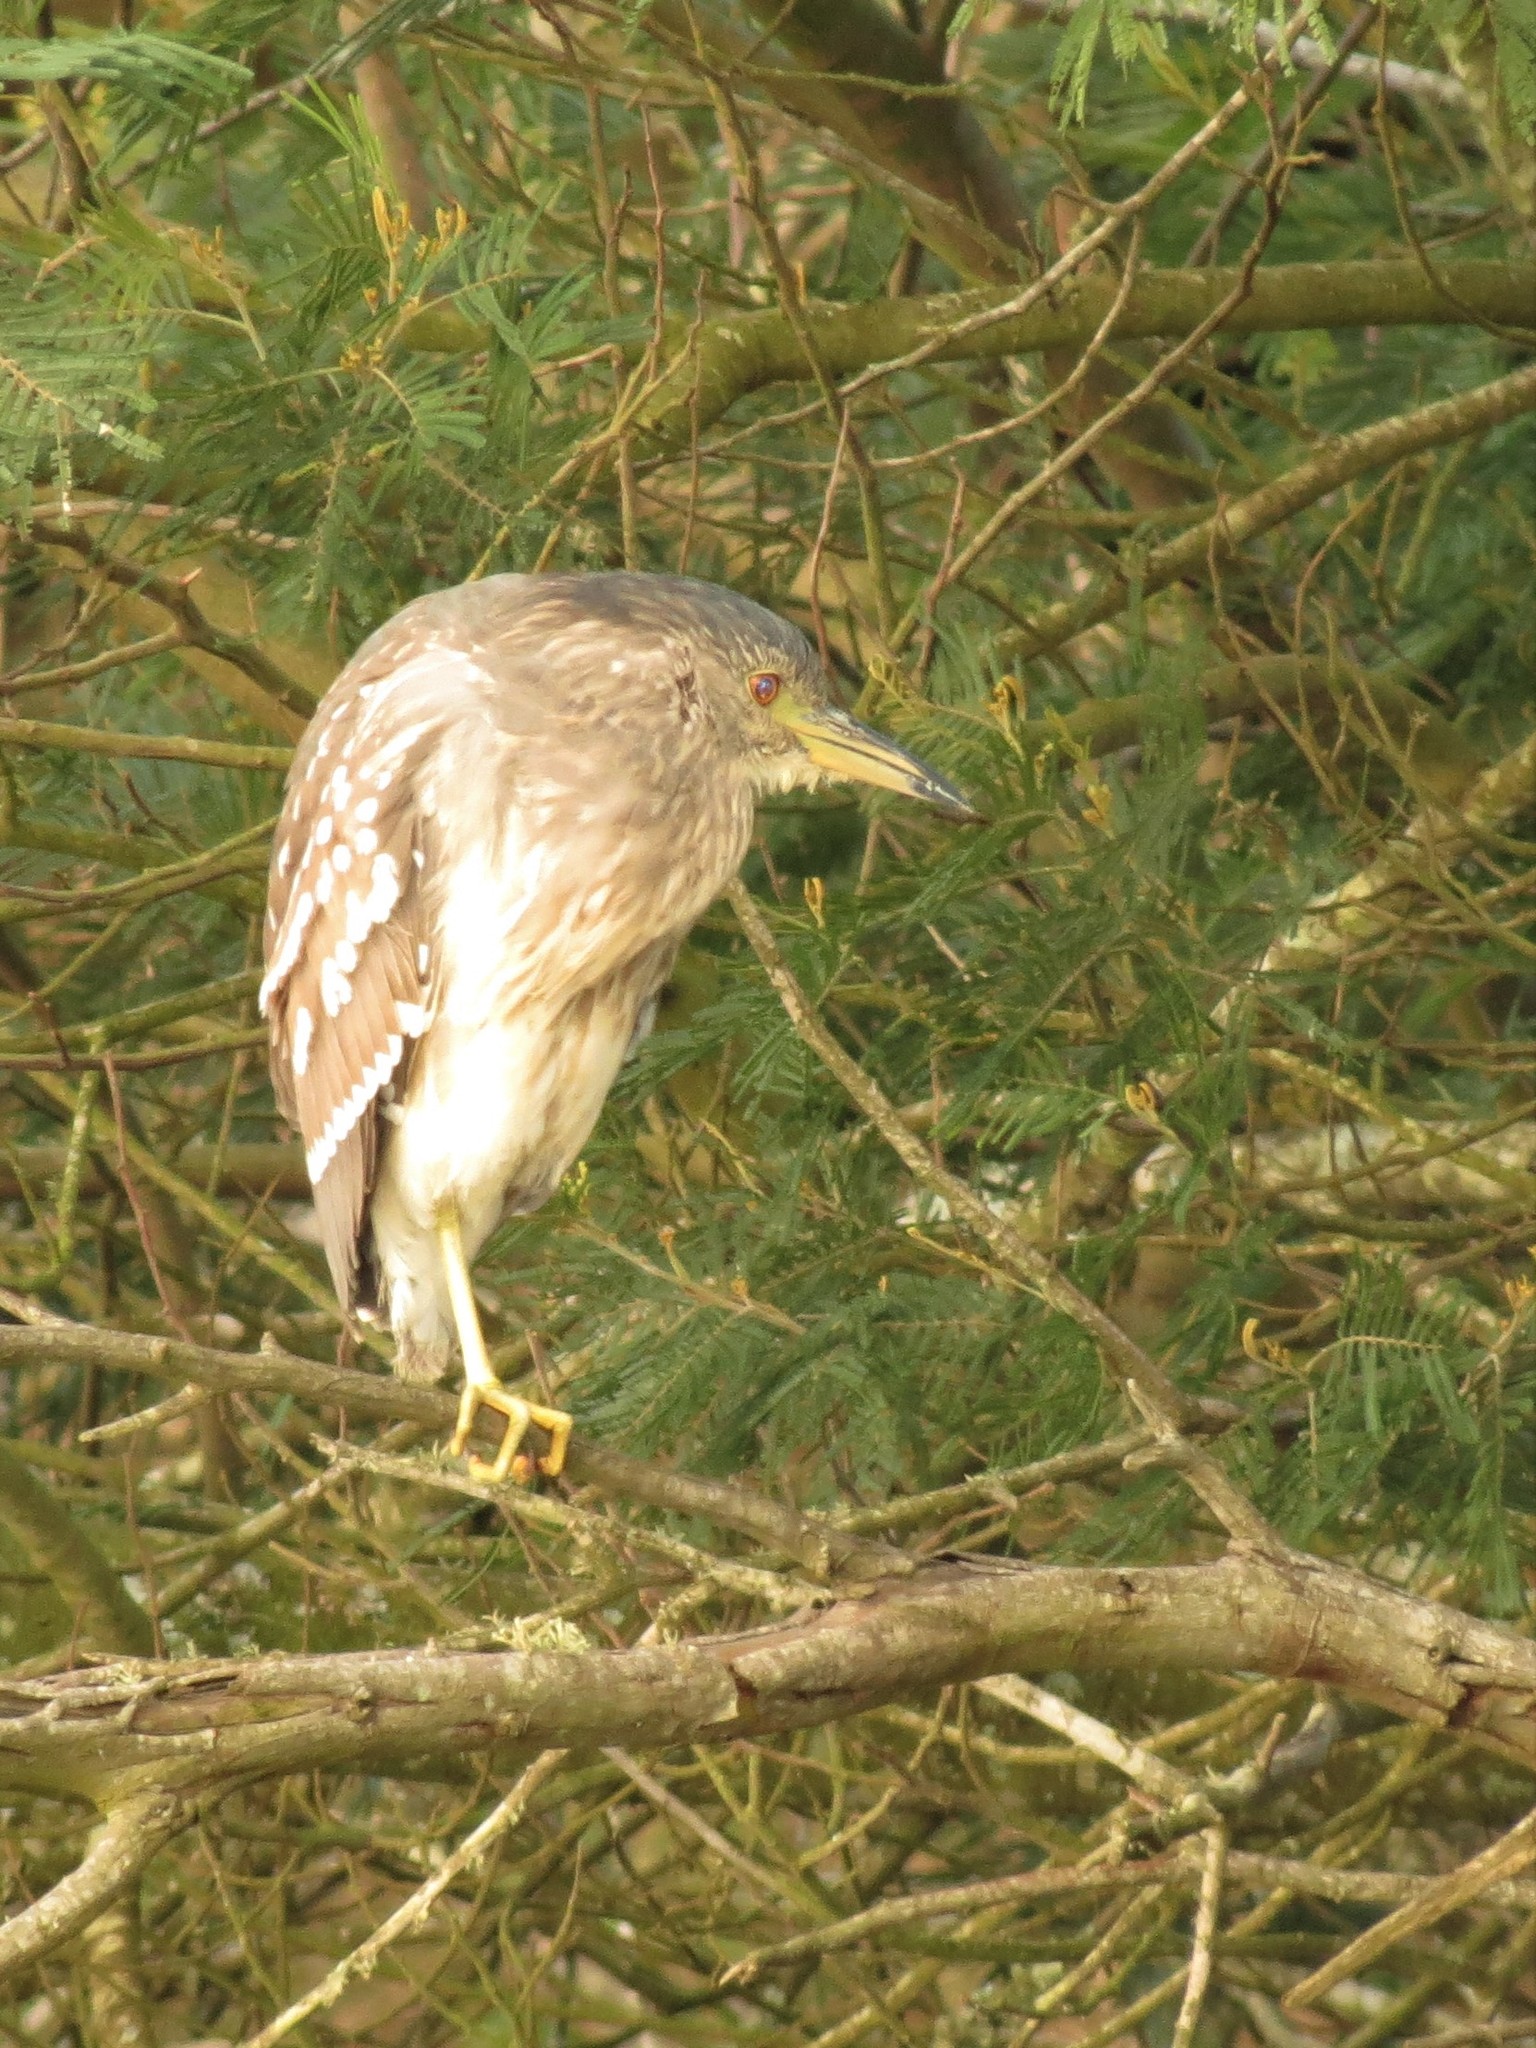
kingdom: Animalia
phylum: Chordata
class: Aves
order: Pelecaniformes
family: Ardeidae
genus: Nycticorax
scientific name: Nycticorax nycticorax
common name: Black-crowned night heron
